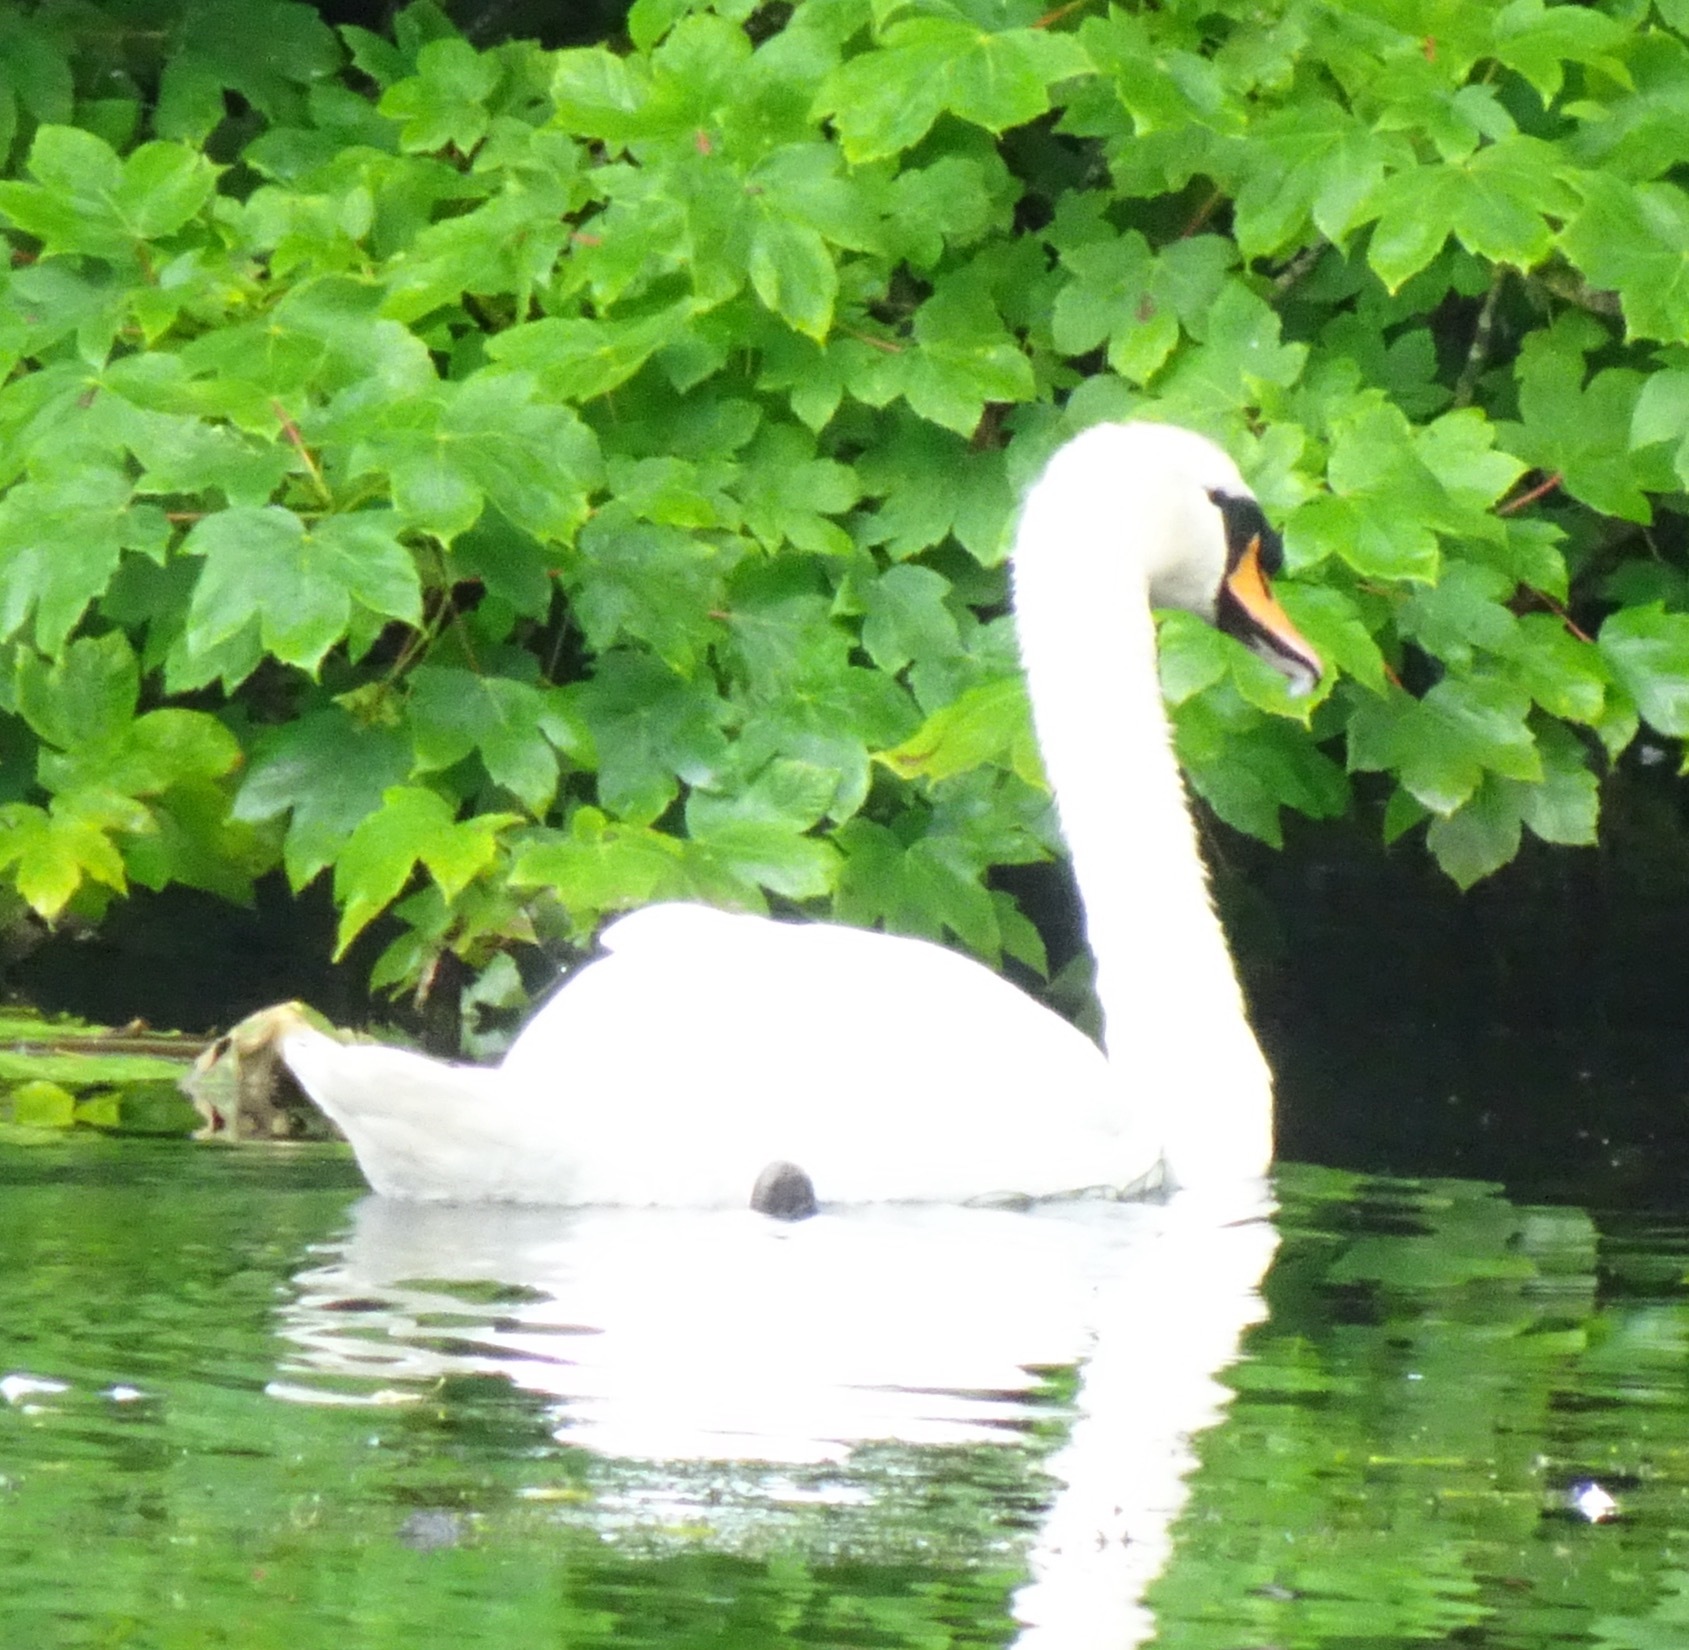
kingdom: Animalia
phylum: Chordata
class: Aves
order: Anseriformes
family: Anatidae
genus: Cygnus
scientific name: Cygnus olor
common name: Mute swan
